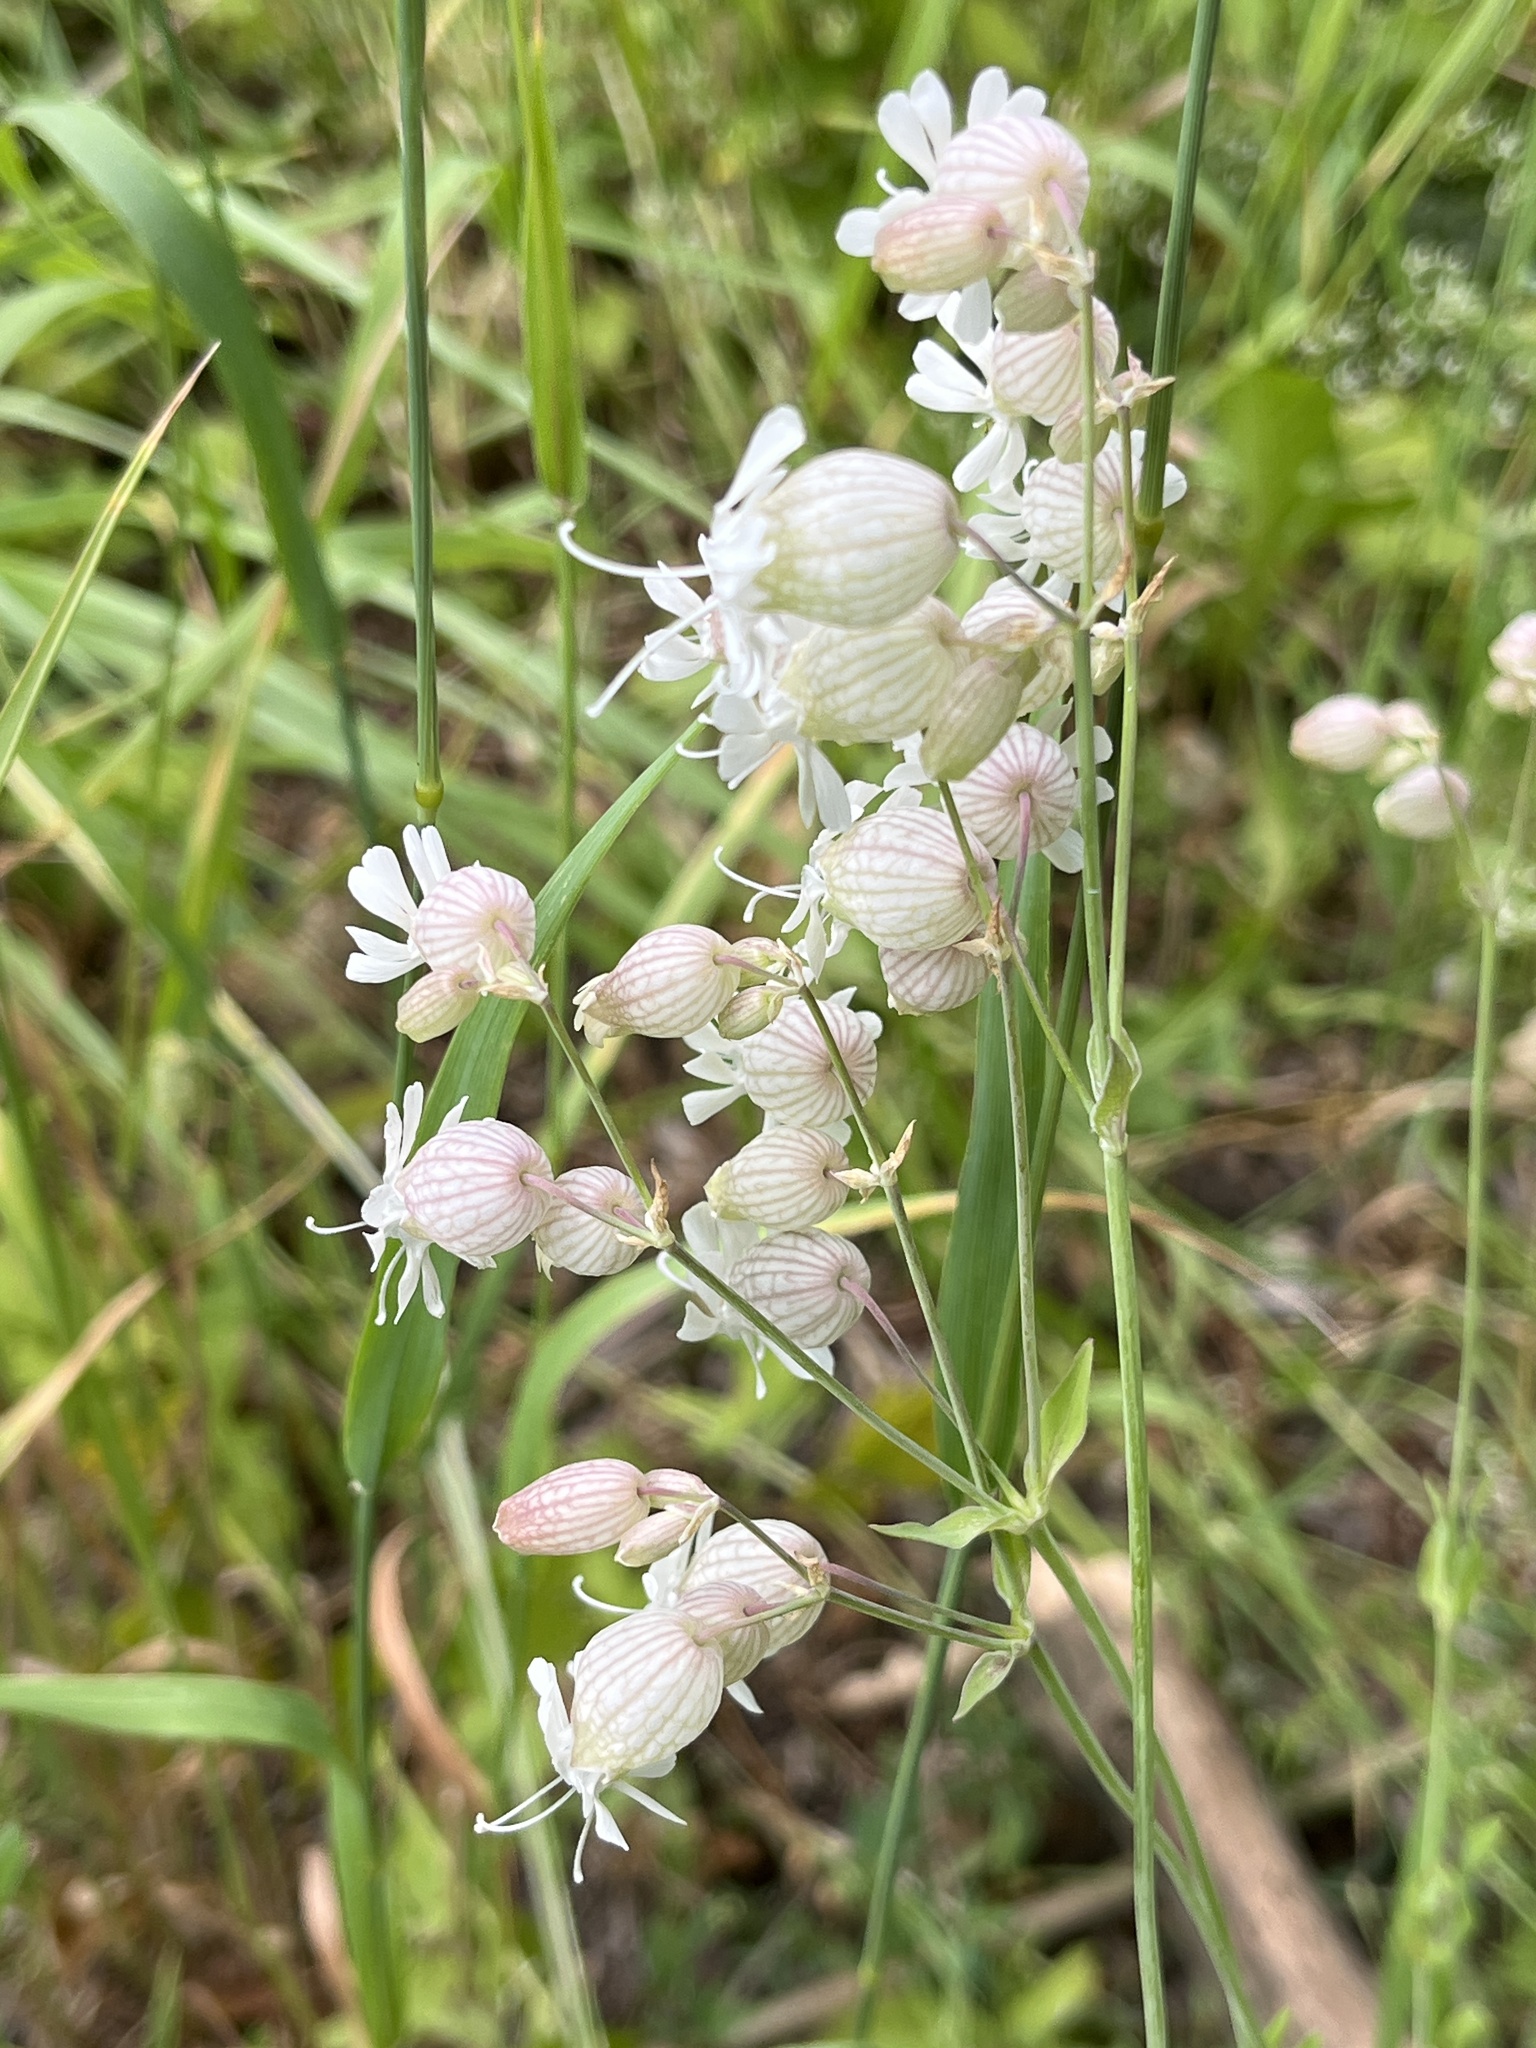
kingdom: Plantae
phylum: Tracheophyta
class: Magnoliopsida
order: Caryophyllales
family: Caryophyllaceae
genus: Silene
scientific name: Silene vulgaris
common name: Bladder campion
